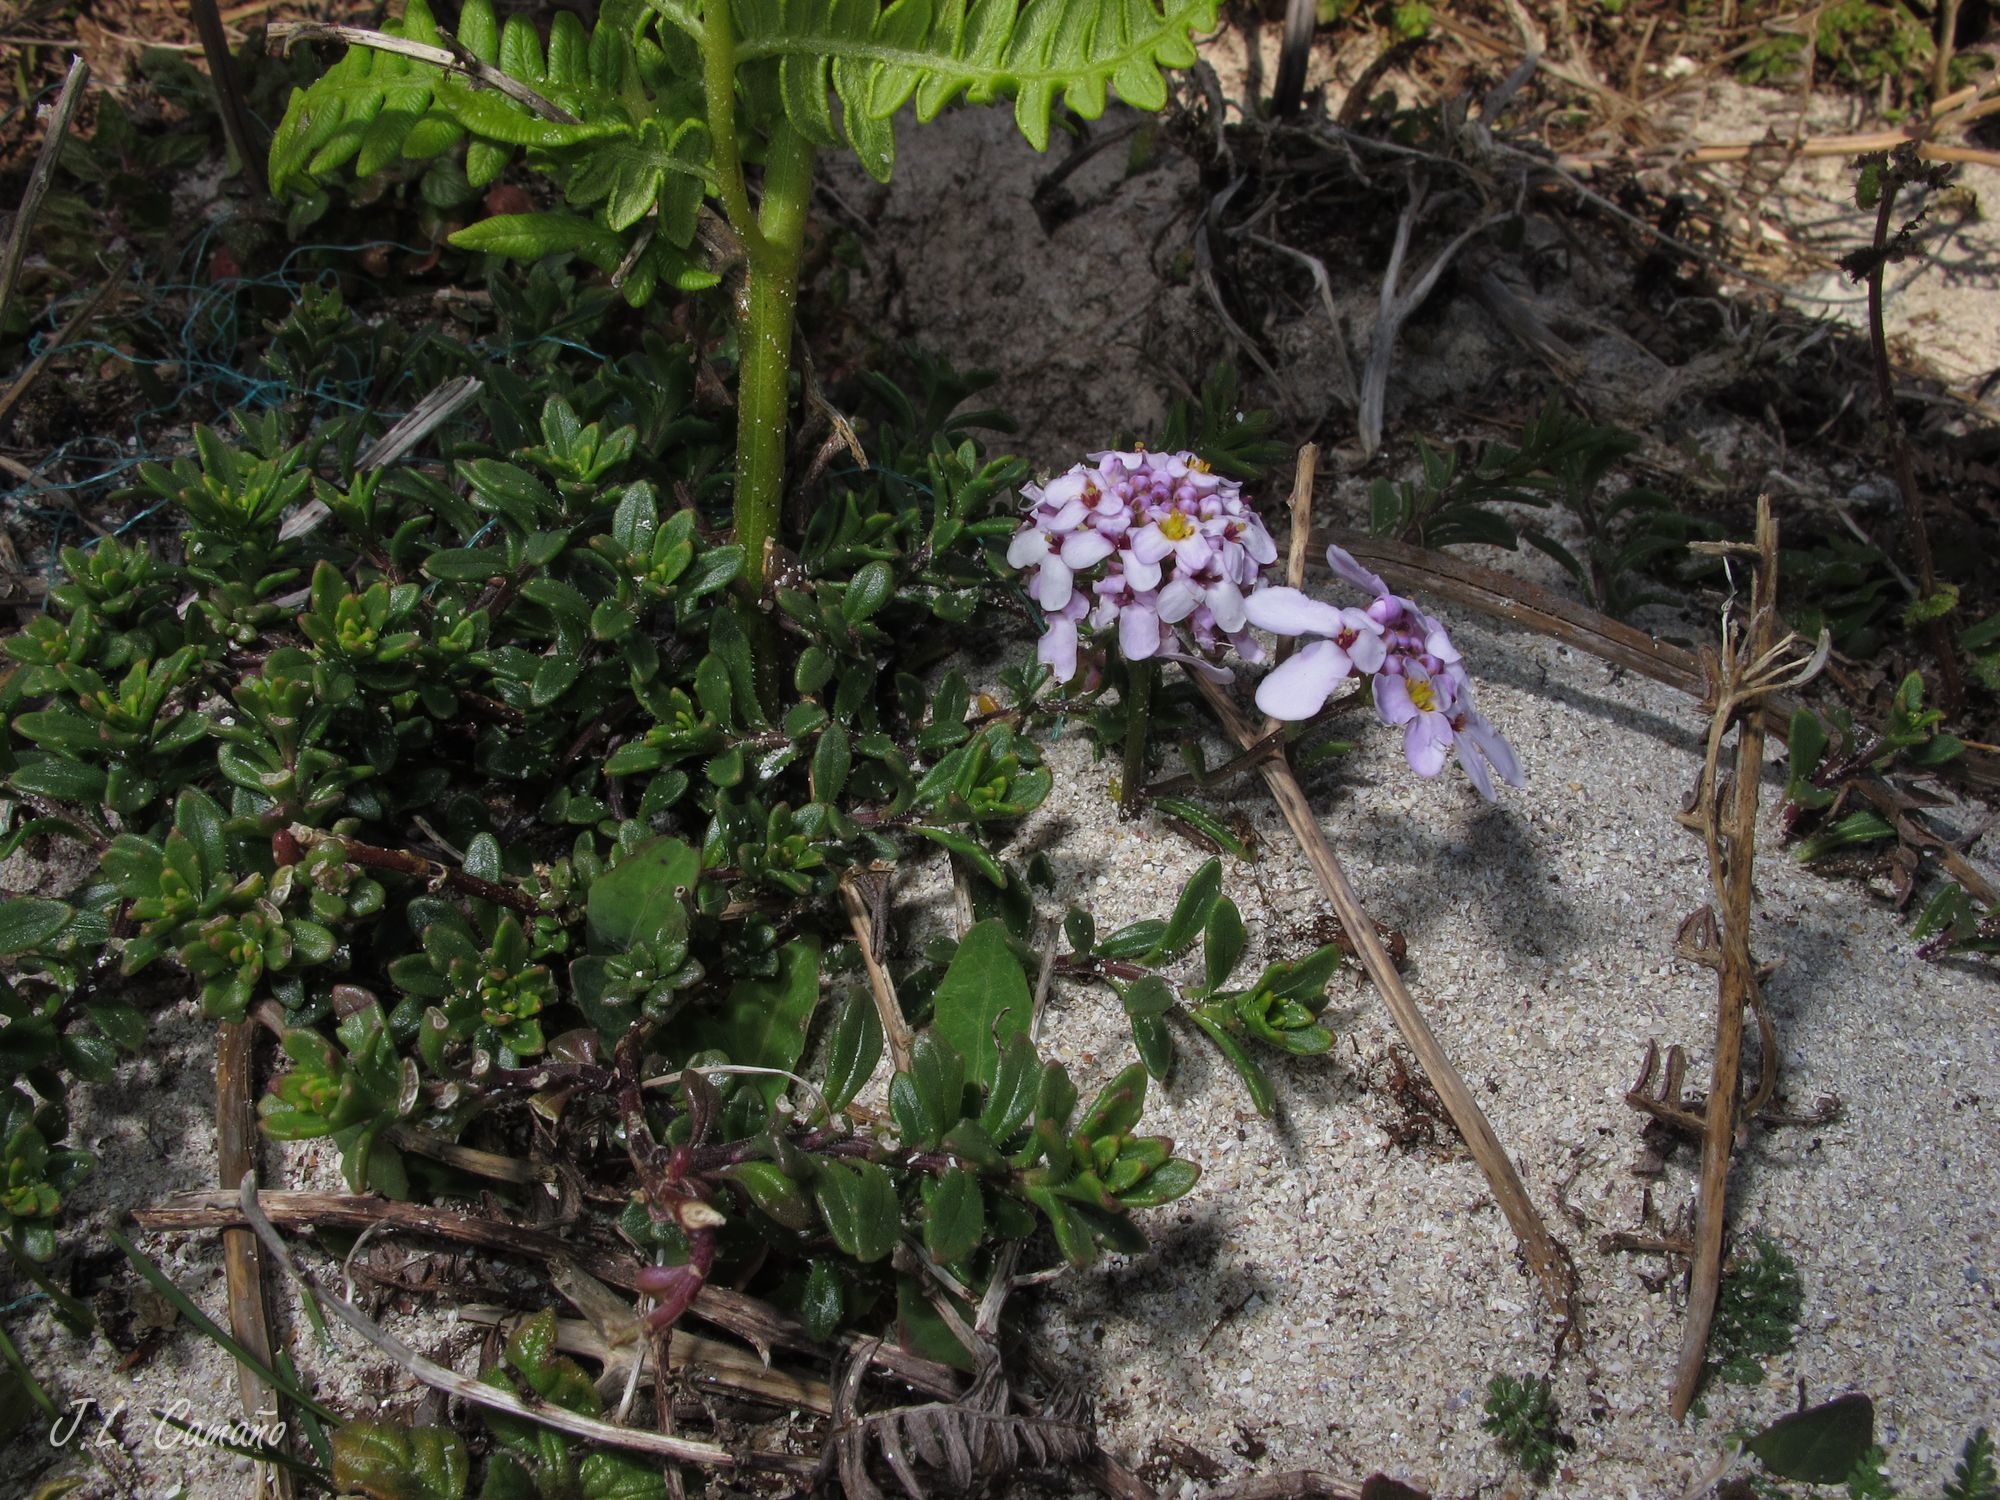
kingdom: Plantae
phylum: Tracheophyta
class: Magnoliopsida
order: Brassicales
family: Brassicaceae
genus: Iberis
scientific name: Iberis procumbens
